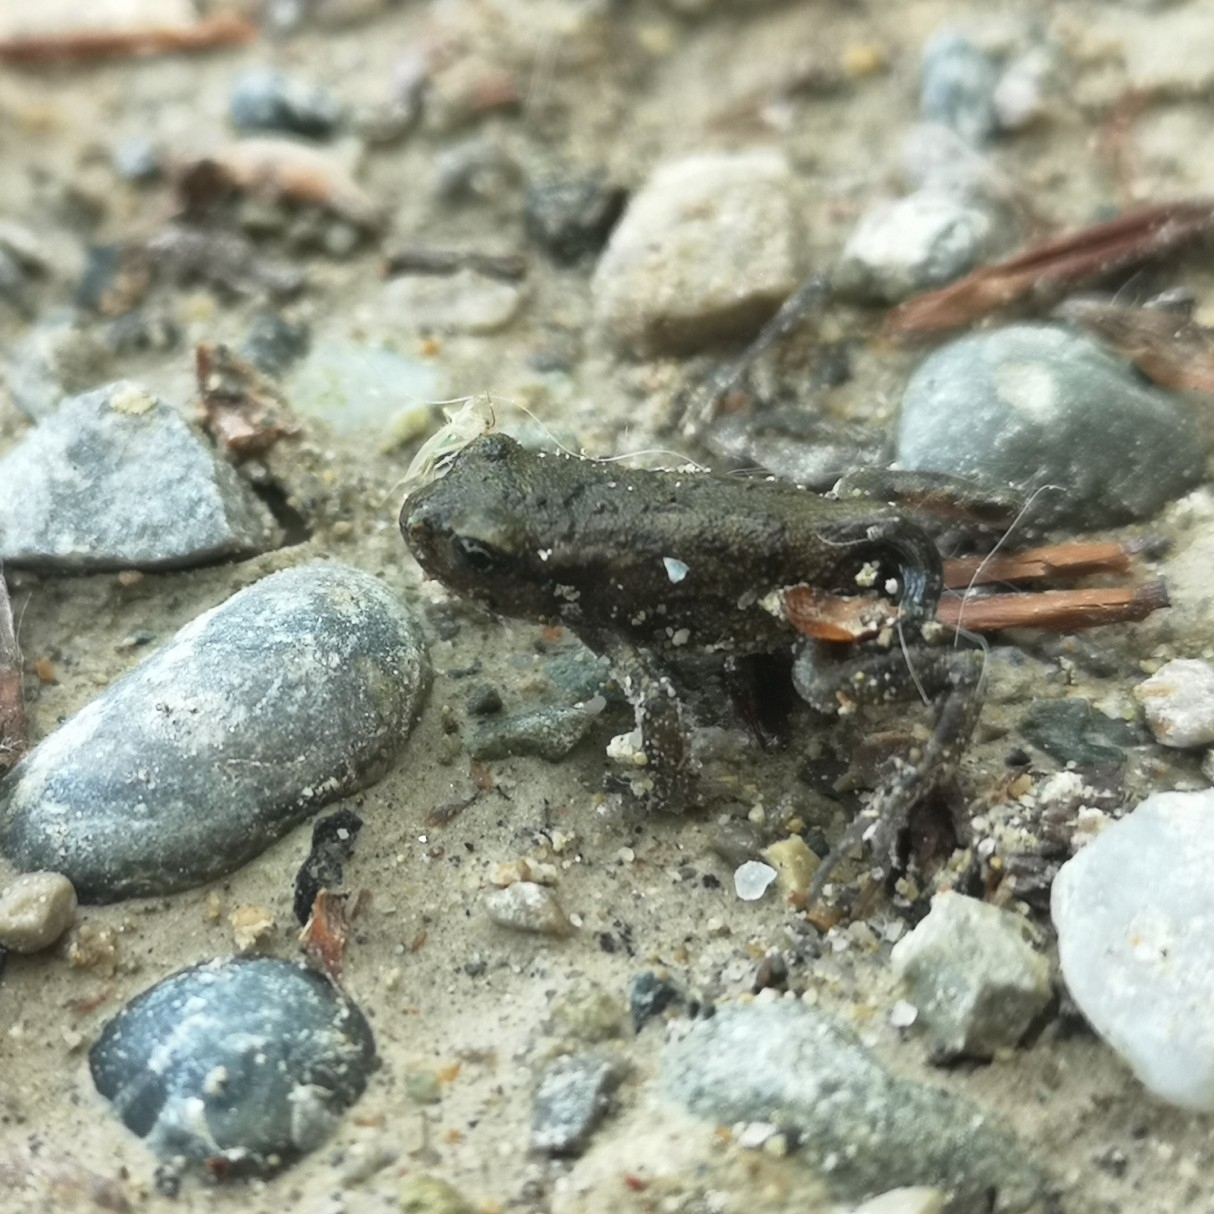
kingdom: Animalia
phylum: Chordata
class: Amphibia
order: Anura
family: Bufonidae
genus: Bufo
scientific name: Bufo bufo
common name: Common toad
